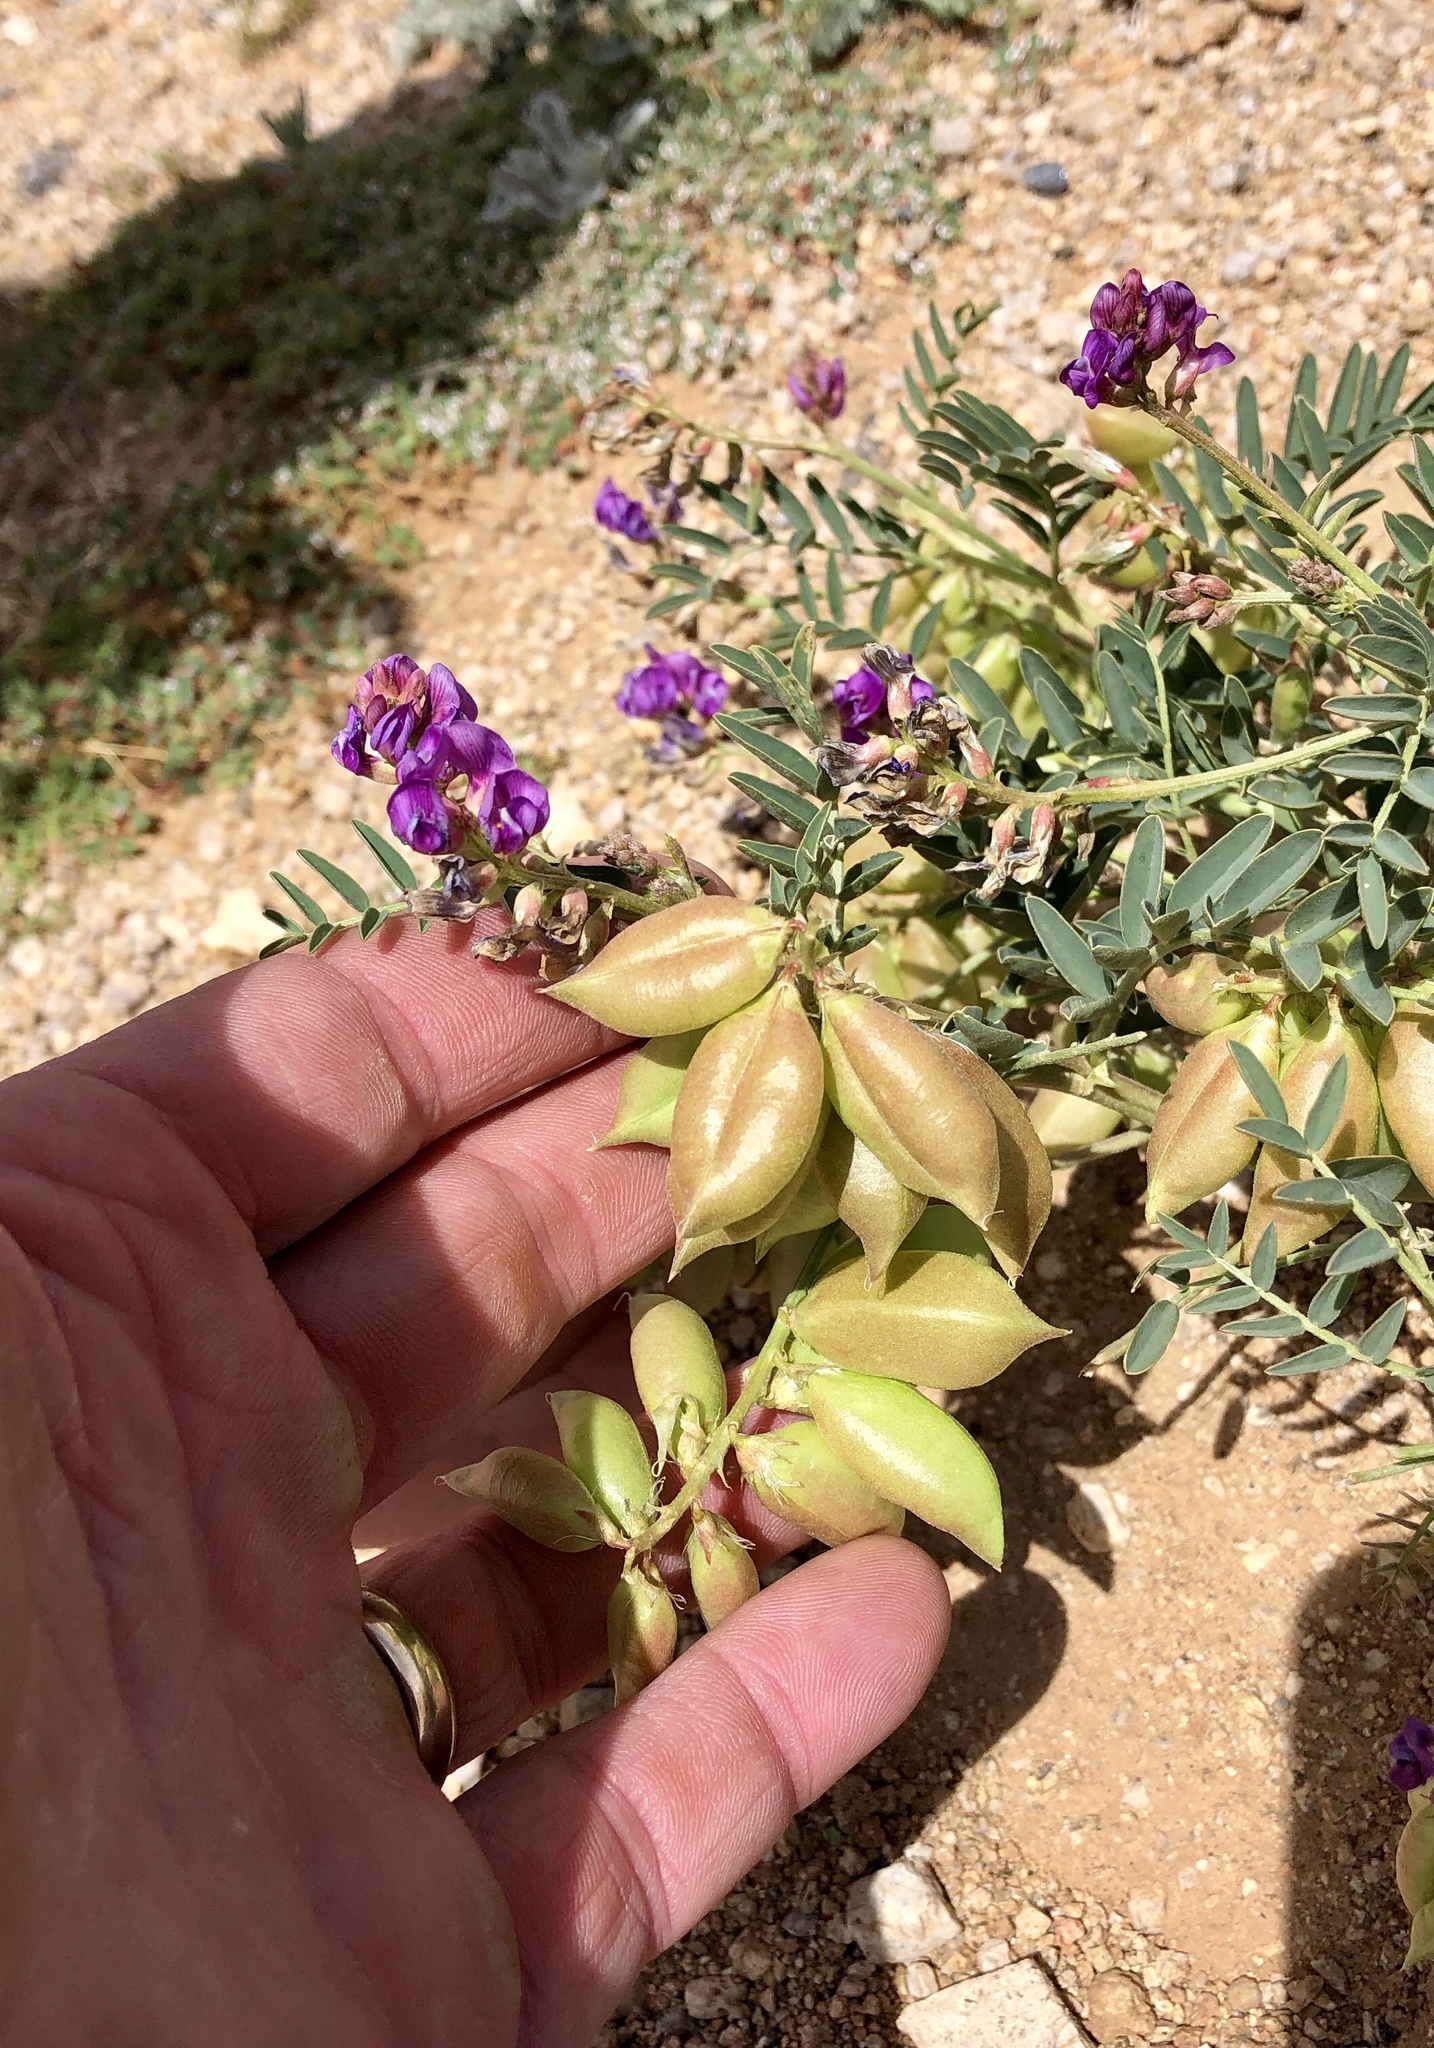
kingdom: Plantae
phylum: Tracheophyta
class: Magnoliopsida
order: Fabales
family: Fabaceae
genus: Astragalus
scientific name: Astragalus allochrous
